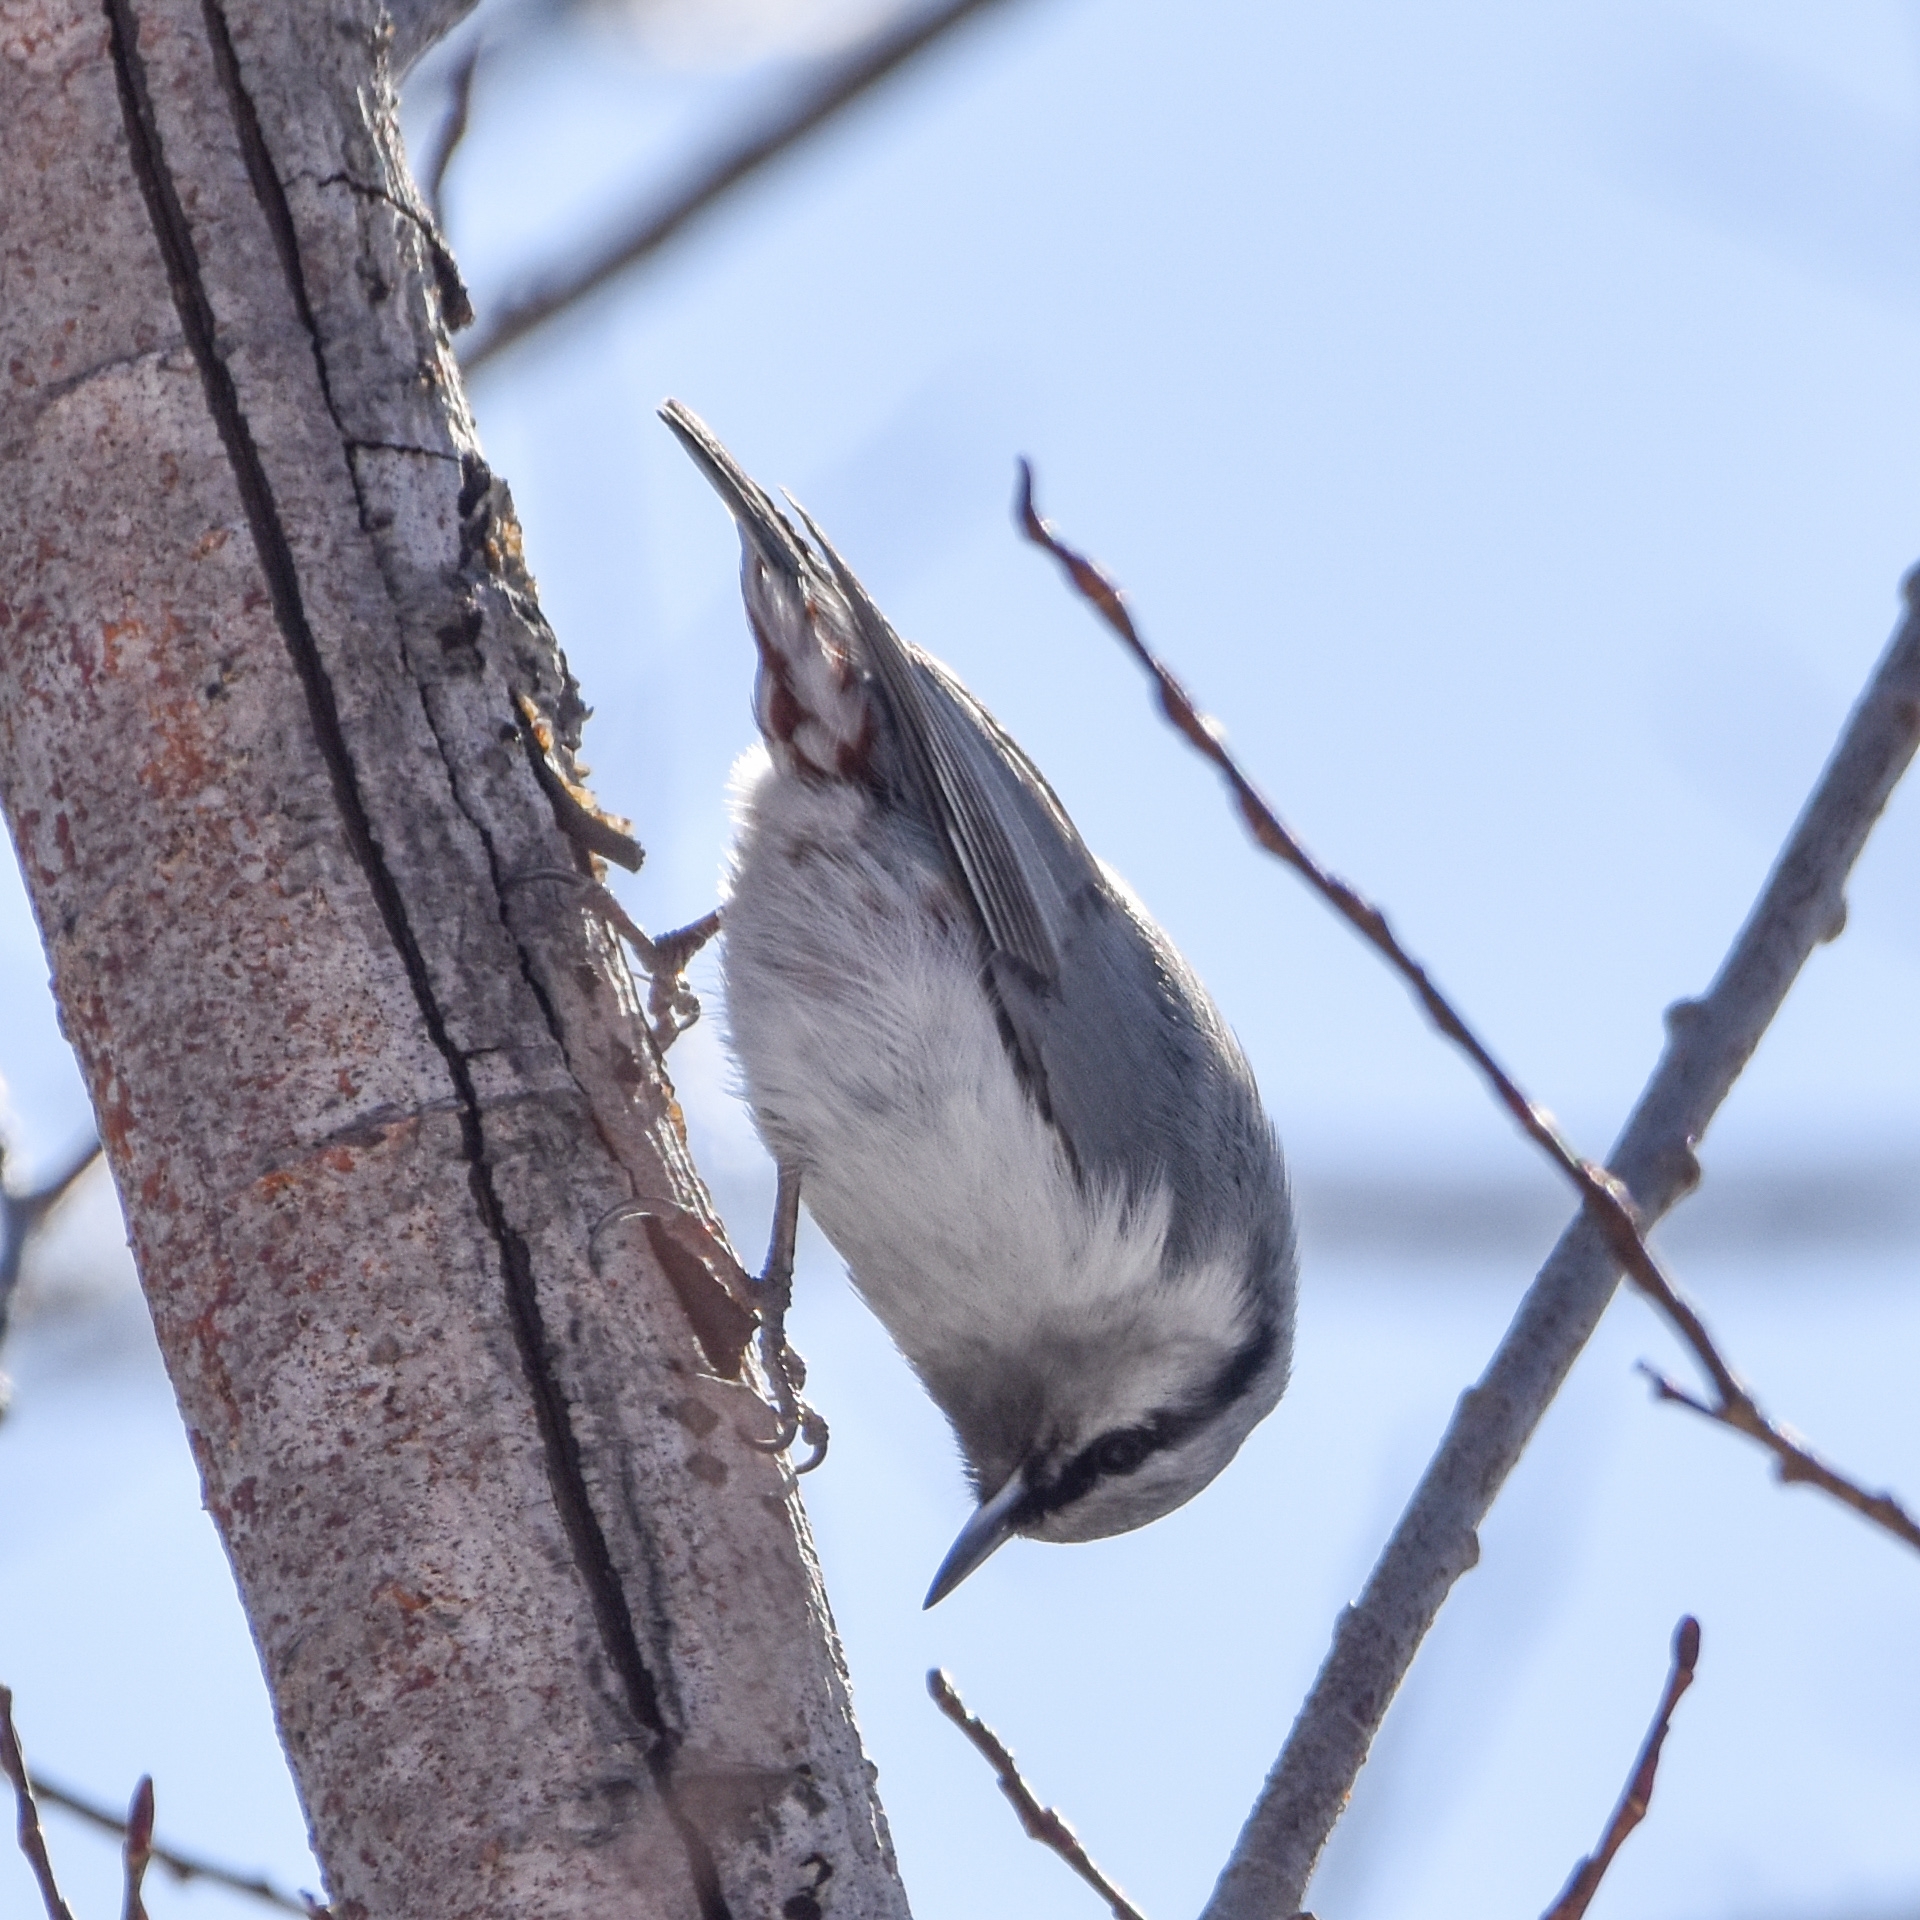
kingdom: Animalia
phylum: Chordata
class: Aves
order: Passeriformes
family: Sittidae
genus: Sitta
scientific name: Sitta europaea
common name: Eurasian nuthatch
